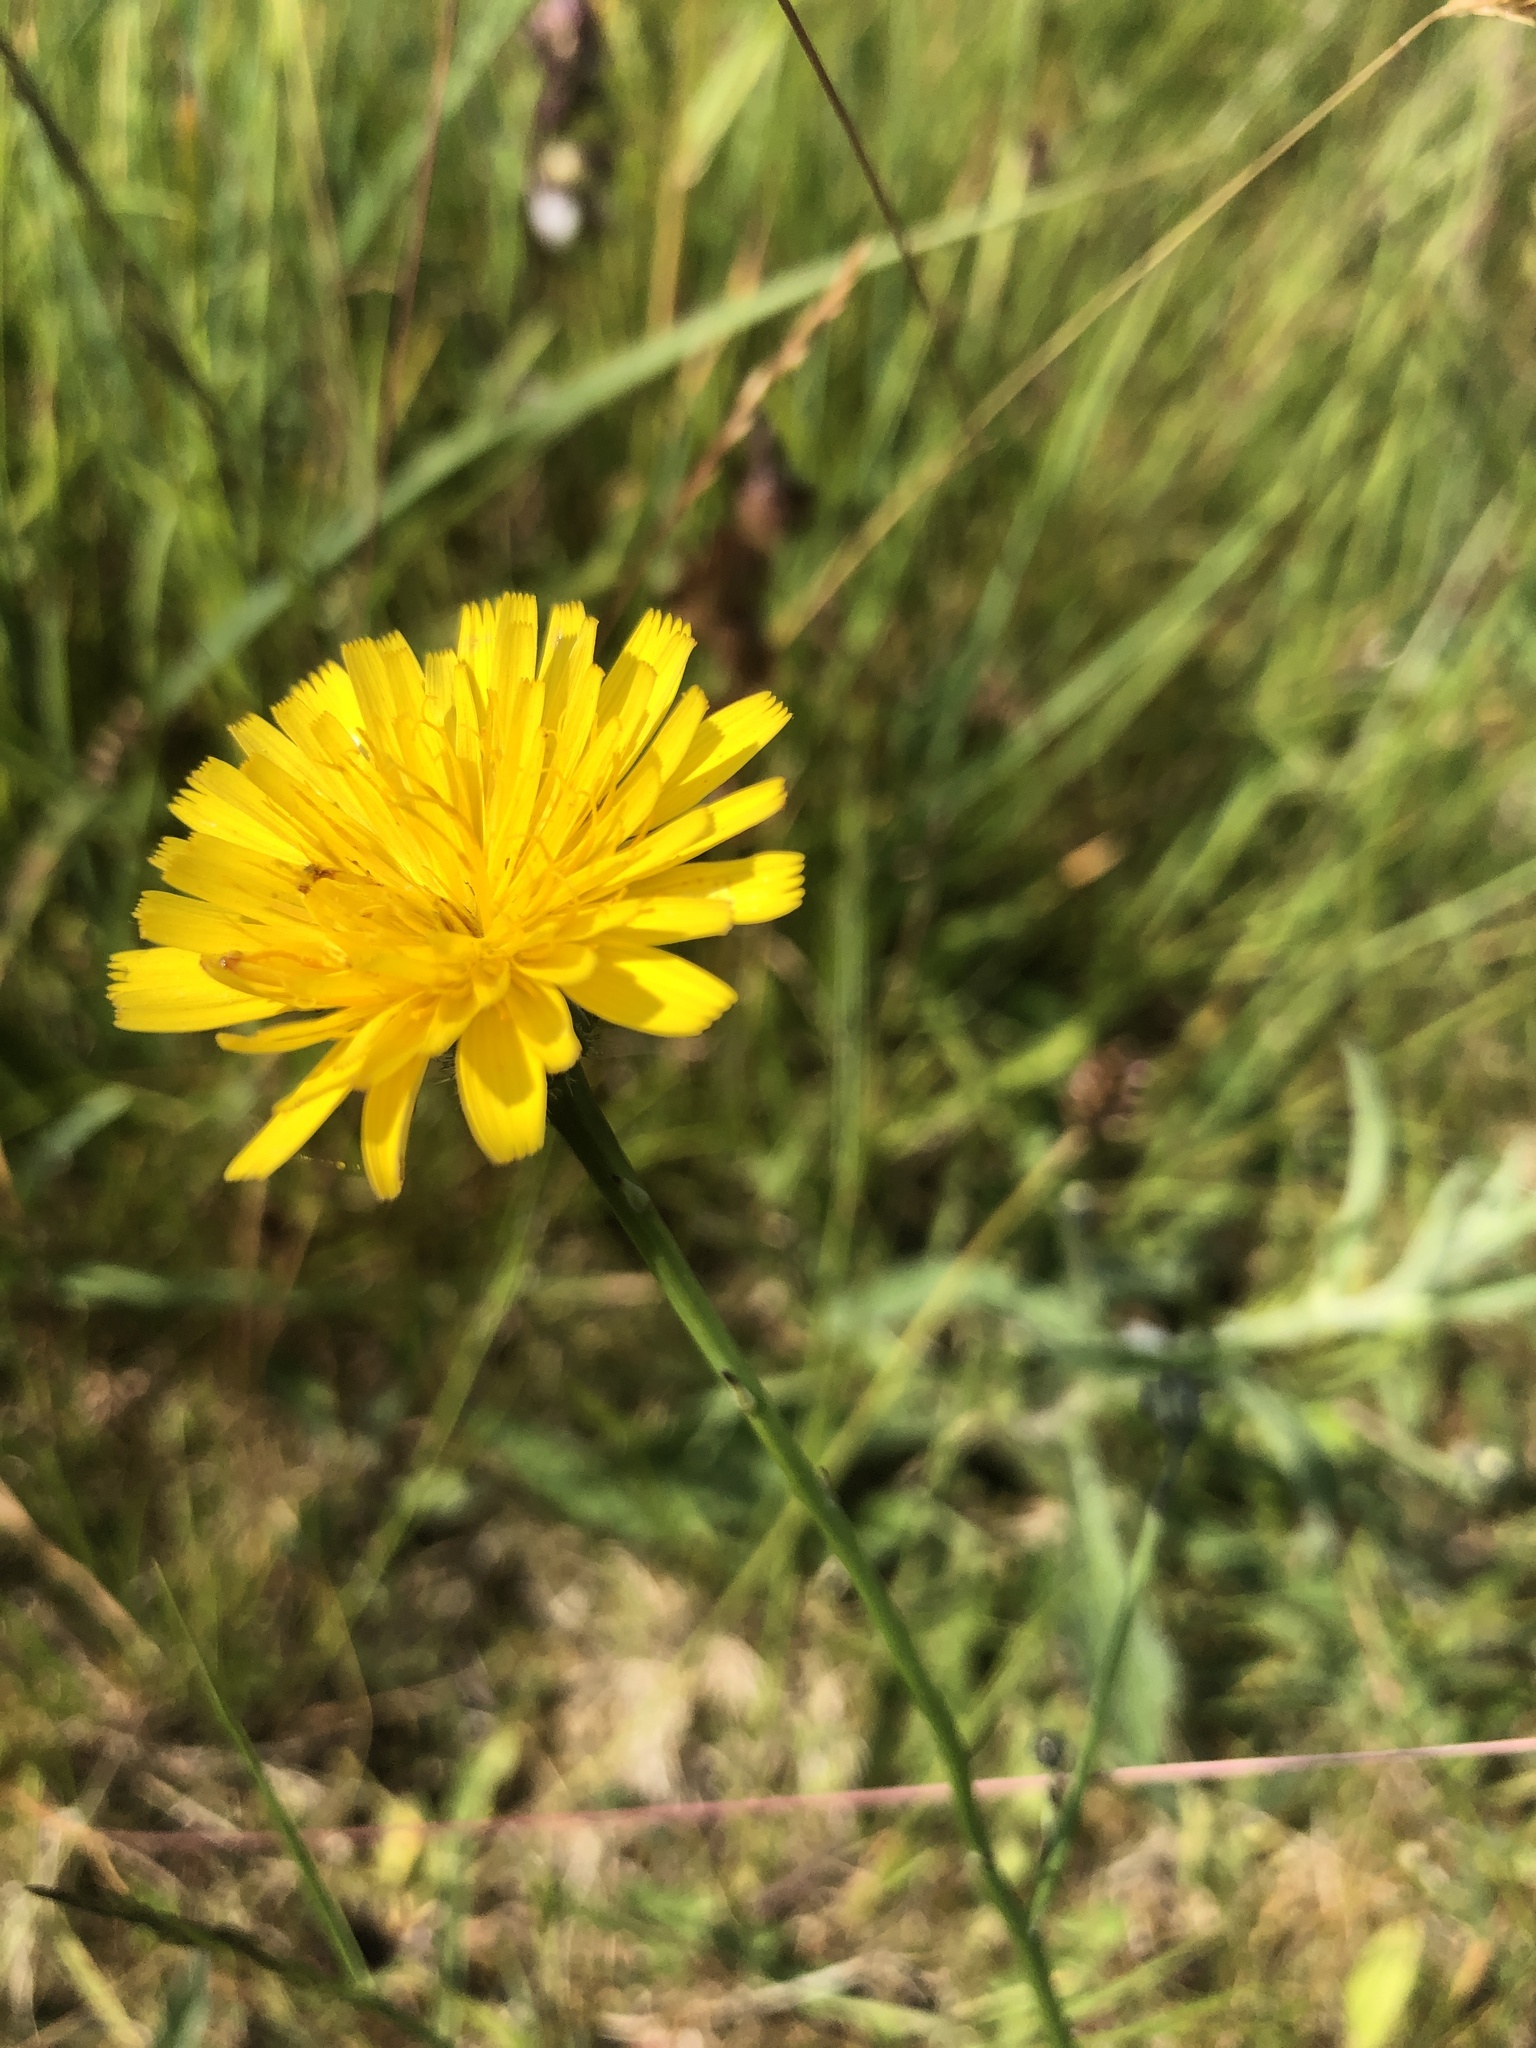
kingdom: Plantae
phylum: Tracheophyta
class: Magnoliopsida
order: Asterales
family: Asteraceae
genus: Hypochaeris
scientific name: Hypochaeris radicata
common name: Flatweed
